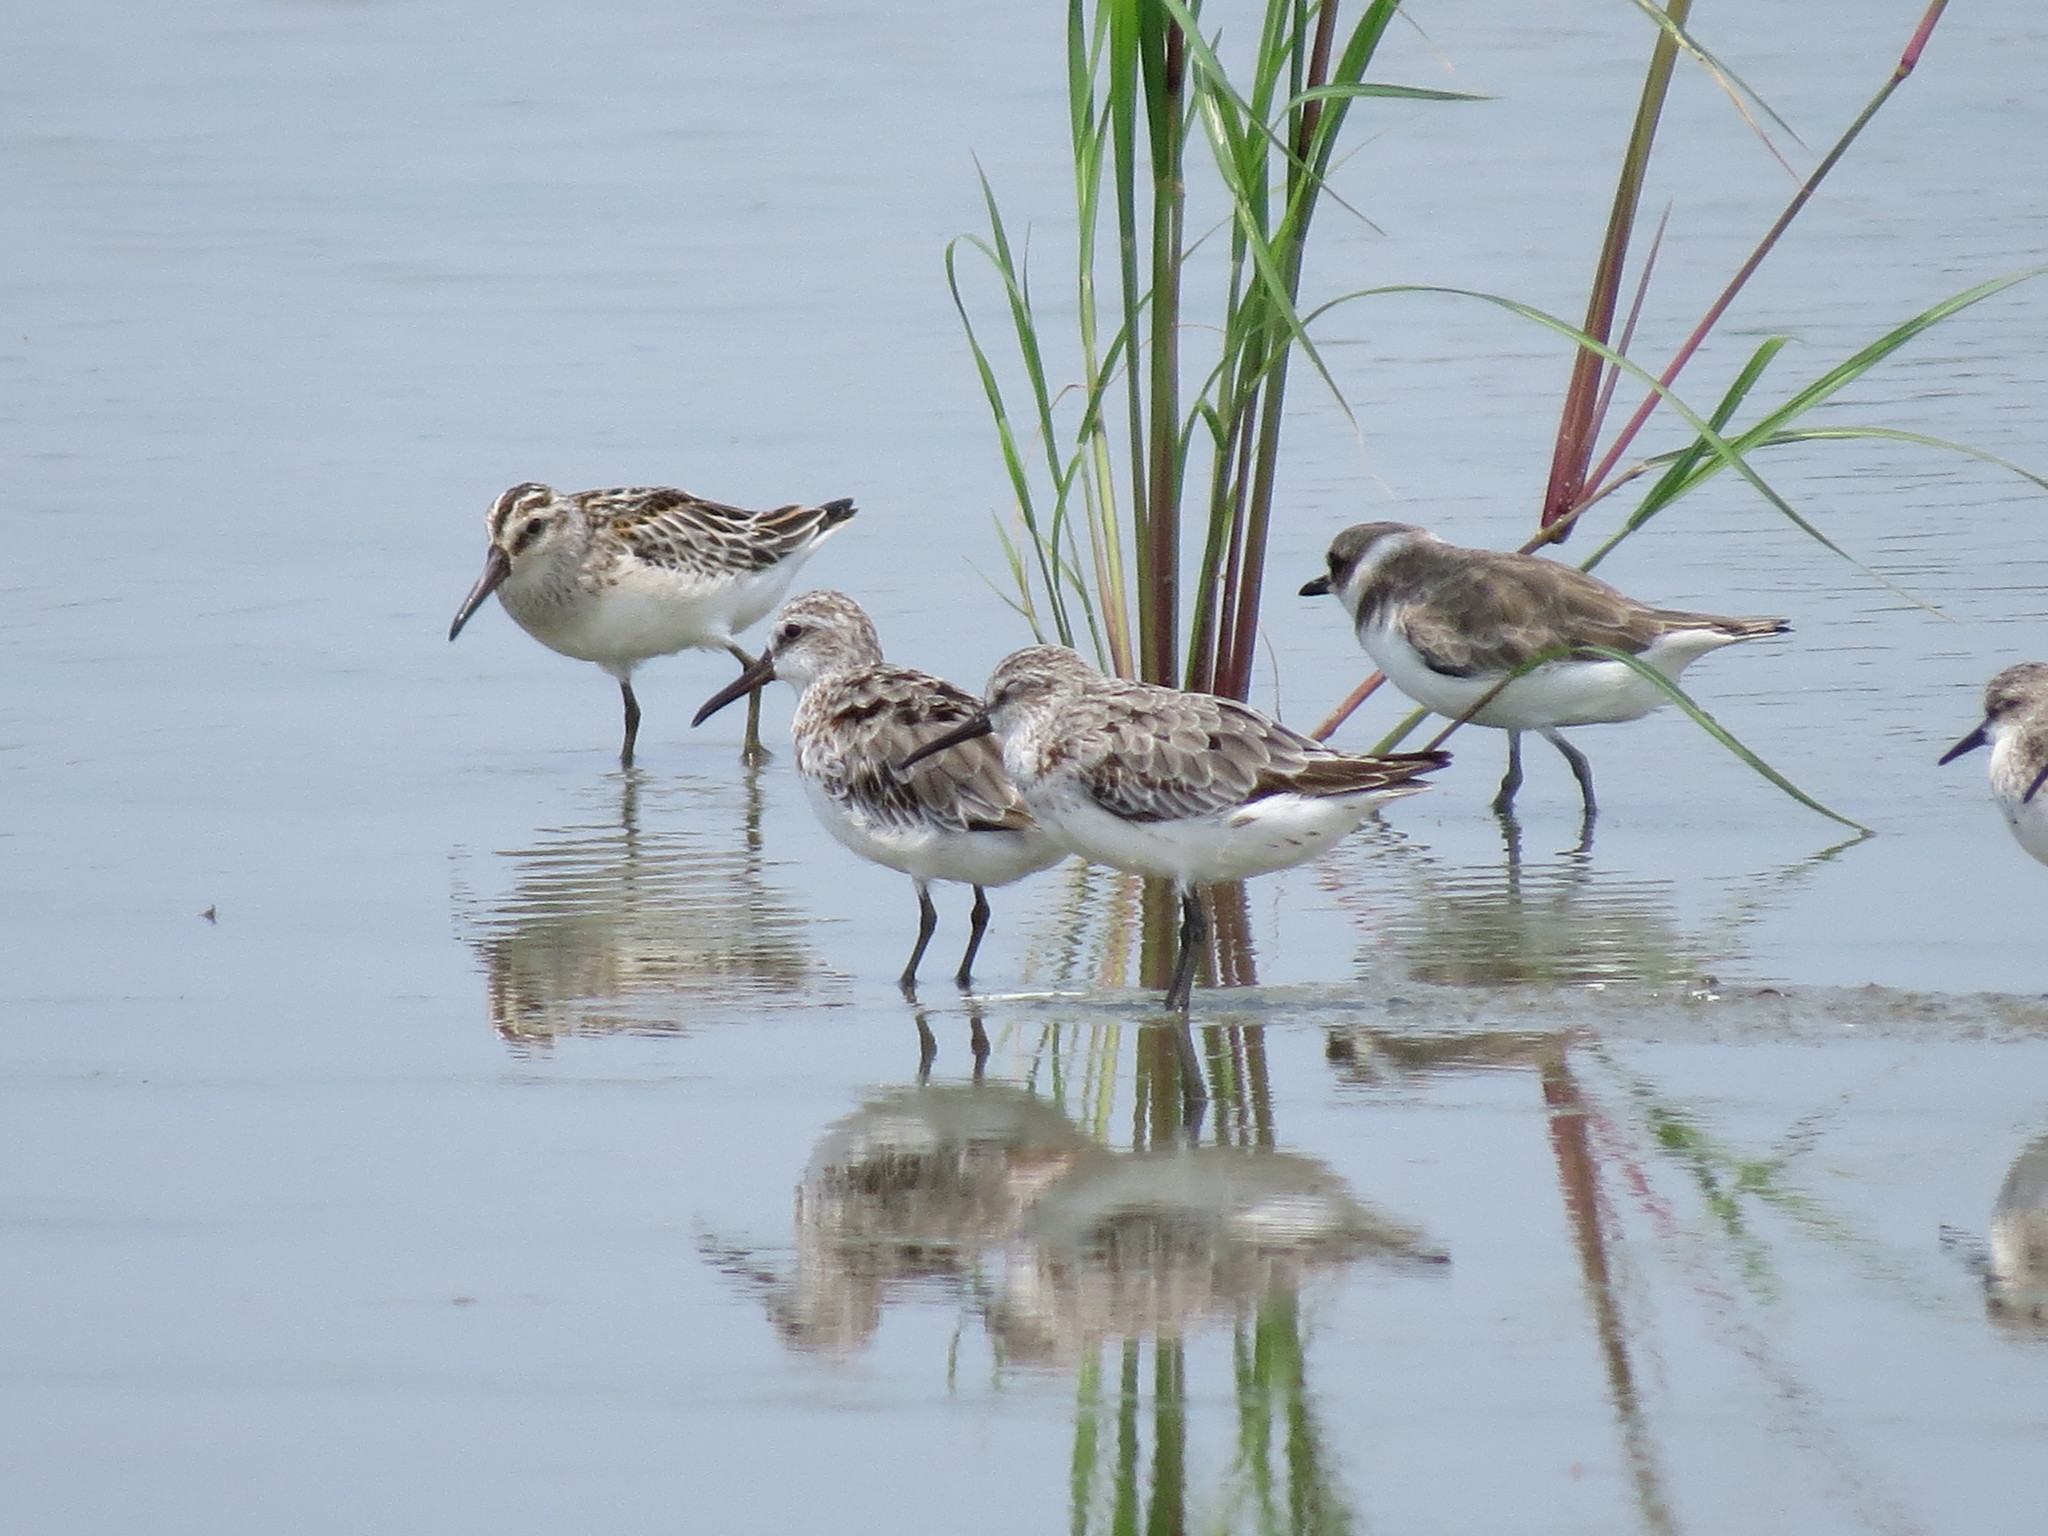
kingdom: Animalia
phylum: Chordata
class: Aves
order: Charadriiformes
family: Scolopacidae
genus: Calidris
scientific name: Calidris falcinellus
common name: Broad-billed sandpiper
